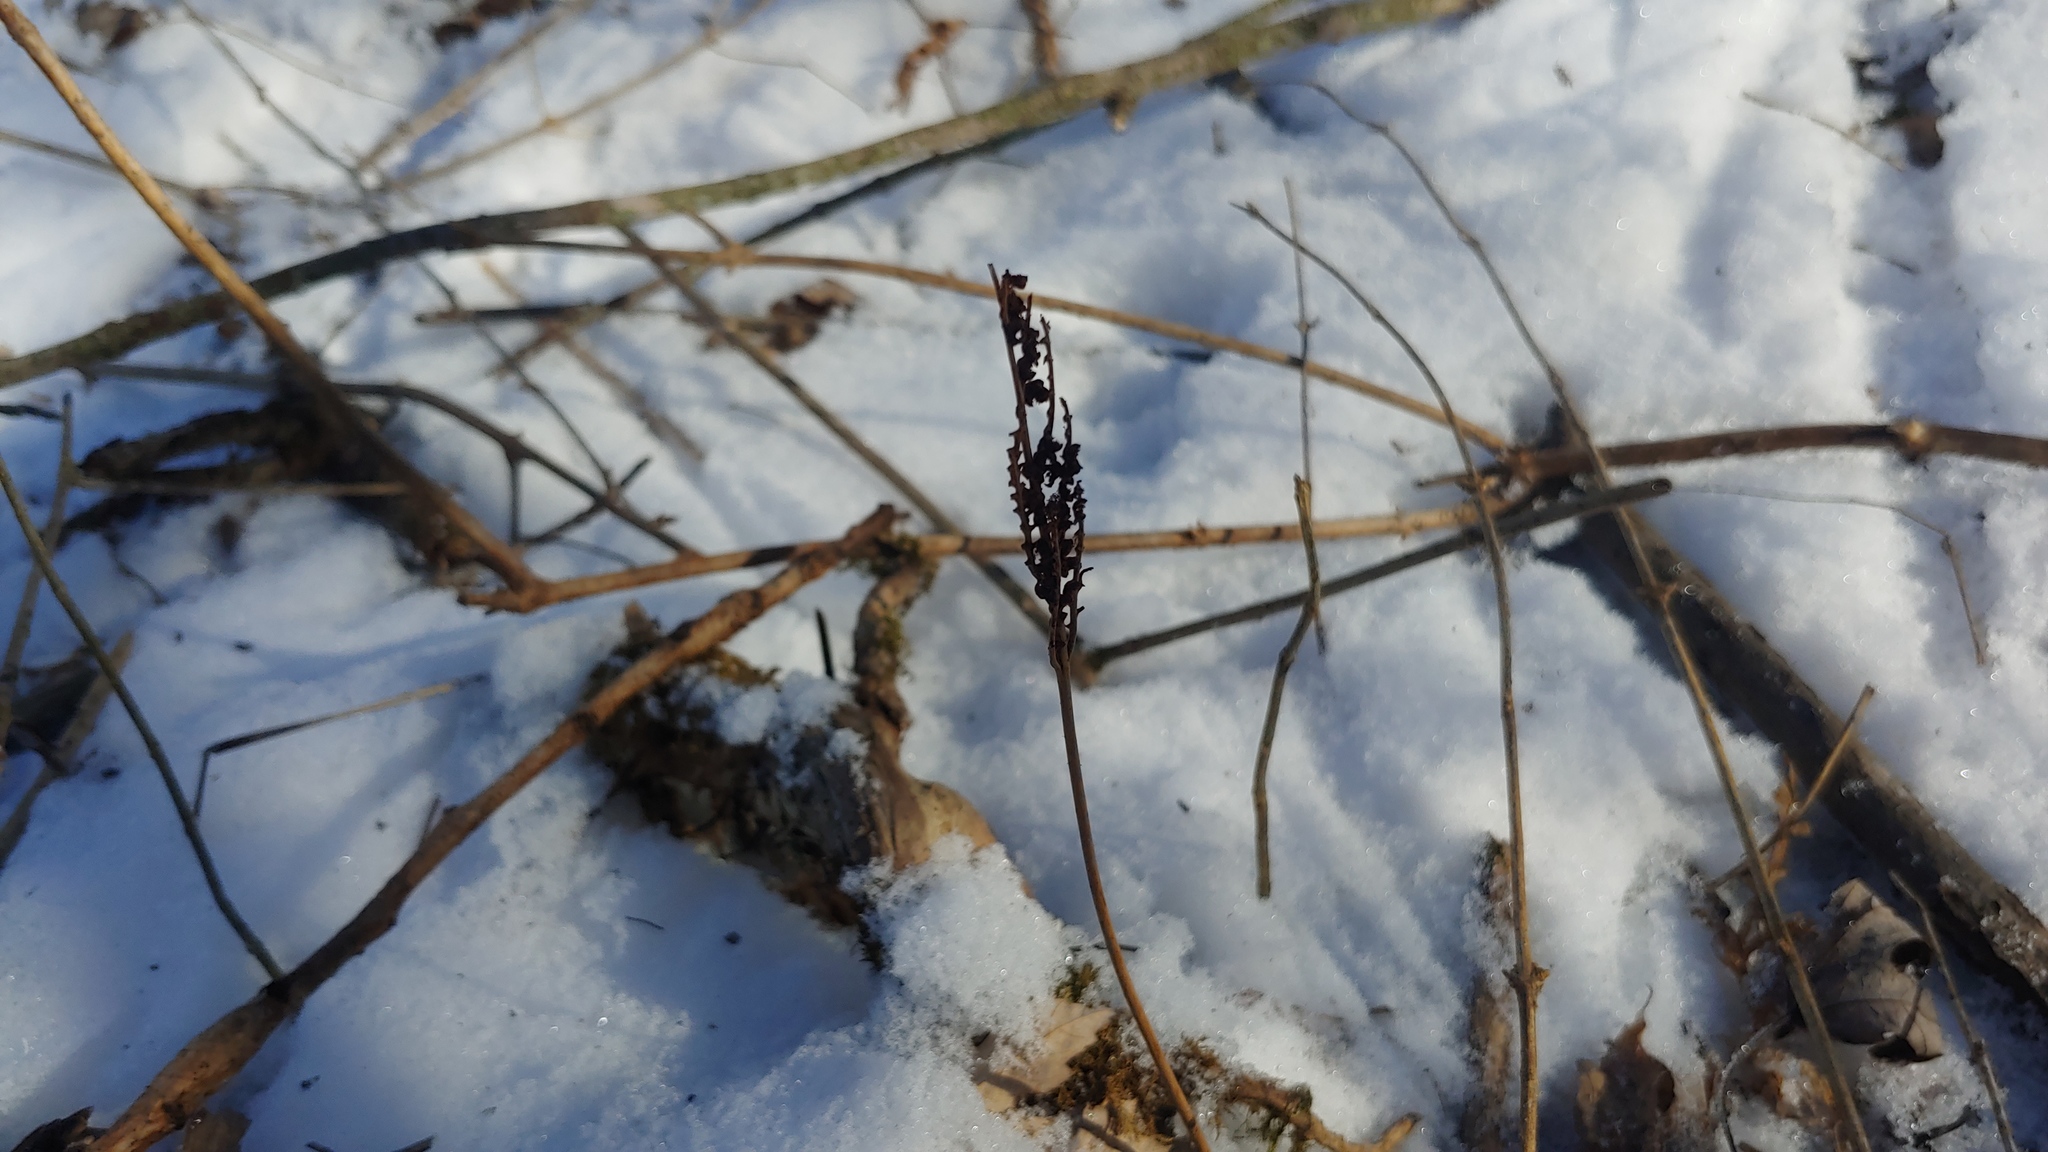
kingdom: Plantae
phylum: Tracheophyta
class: Polypodiopsida
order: Polypodiales
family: Onocleaceae
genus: Onoclea
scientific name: Onoclea sensibilis
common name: Sensitive fern
